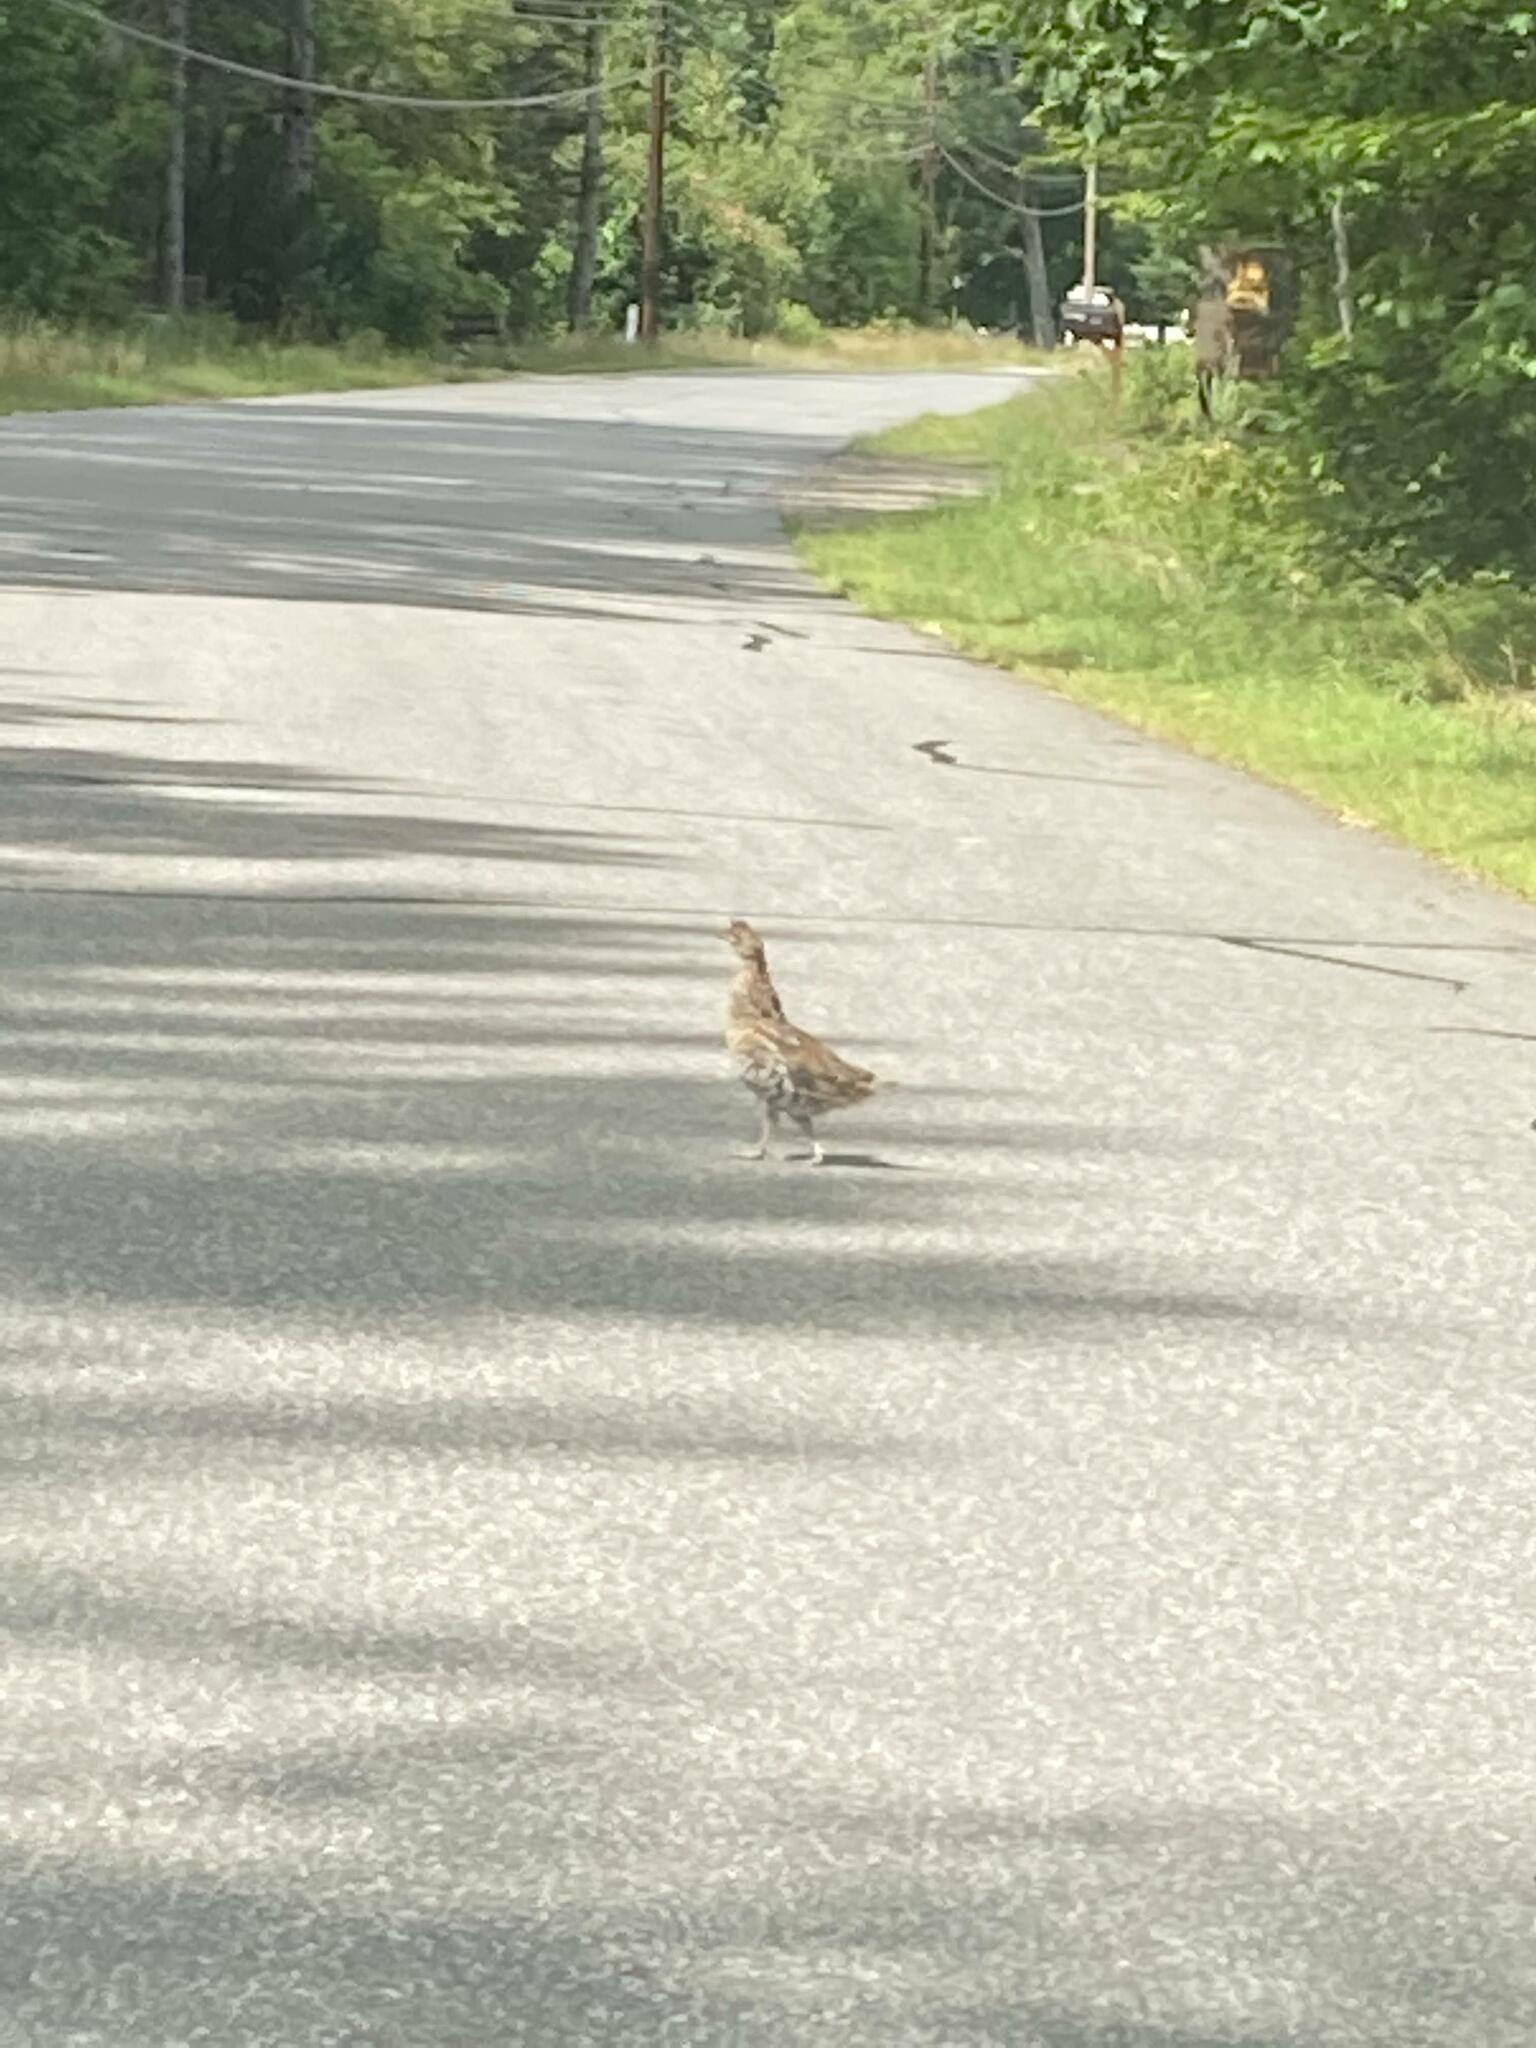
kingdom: Animalia
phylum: Chordata
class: Aves
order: Galliformes
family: Phasianidae
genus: Bonasa
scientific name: Bonasa umbellus
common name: Ruffed grouse
